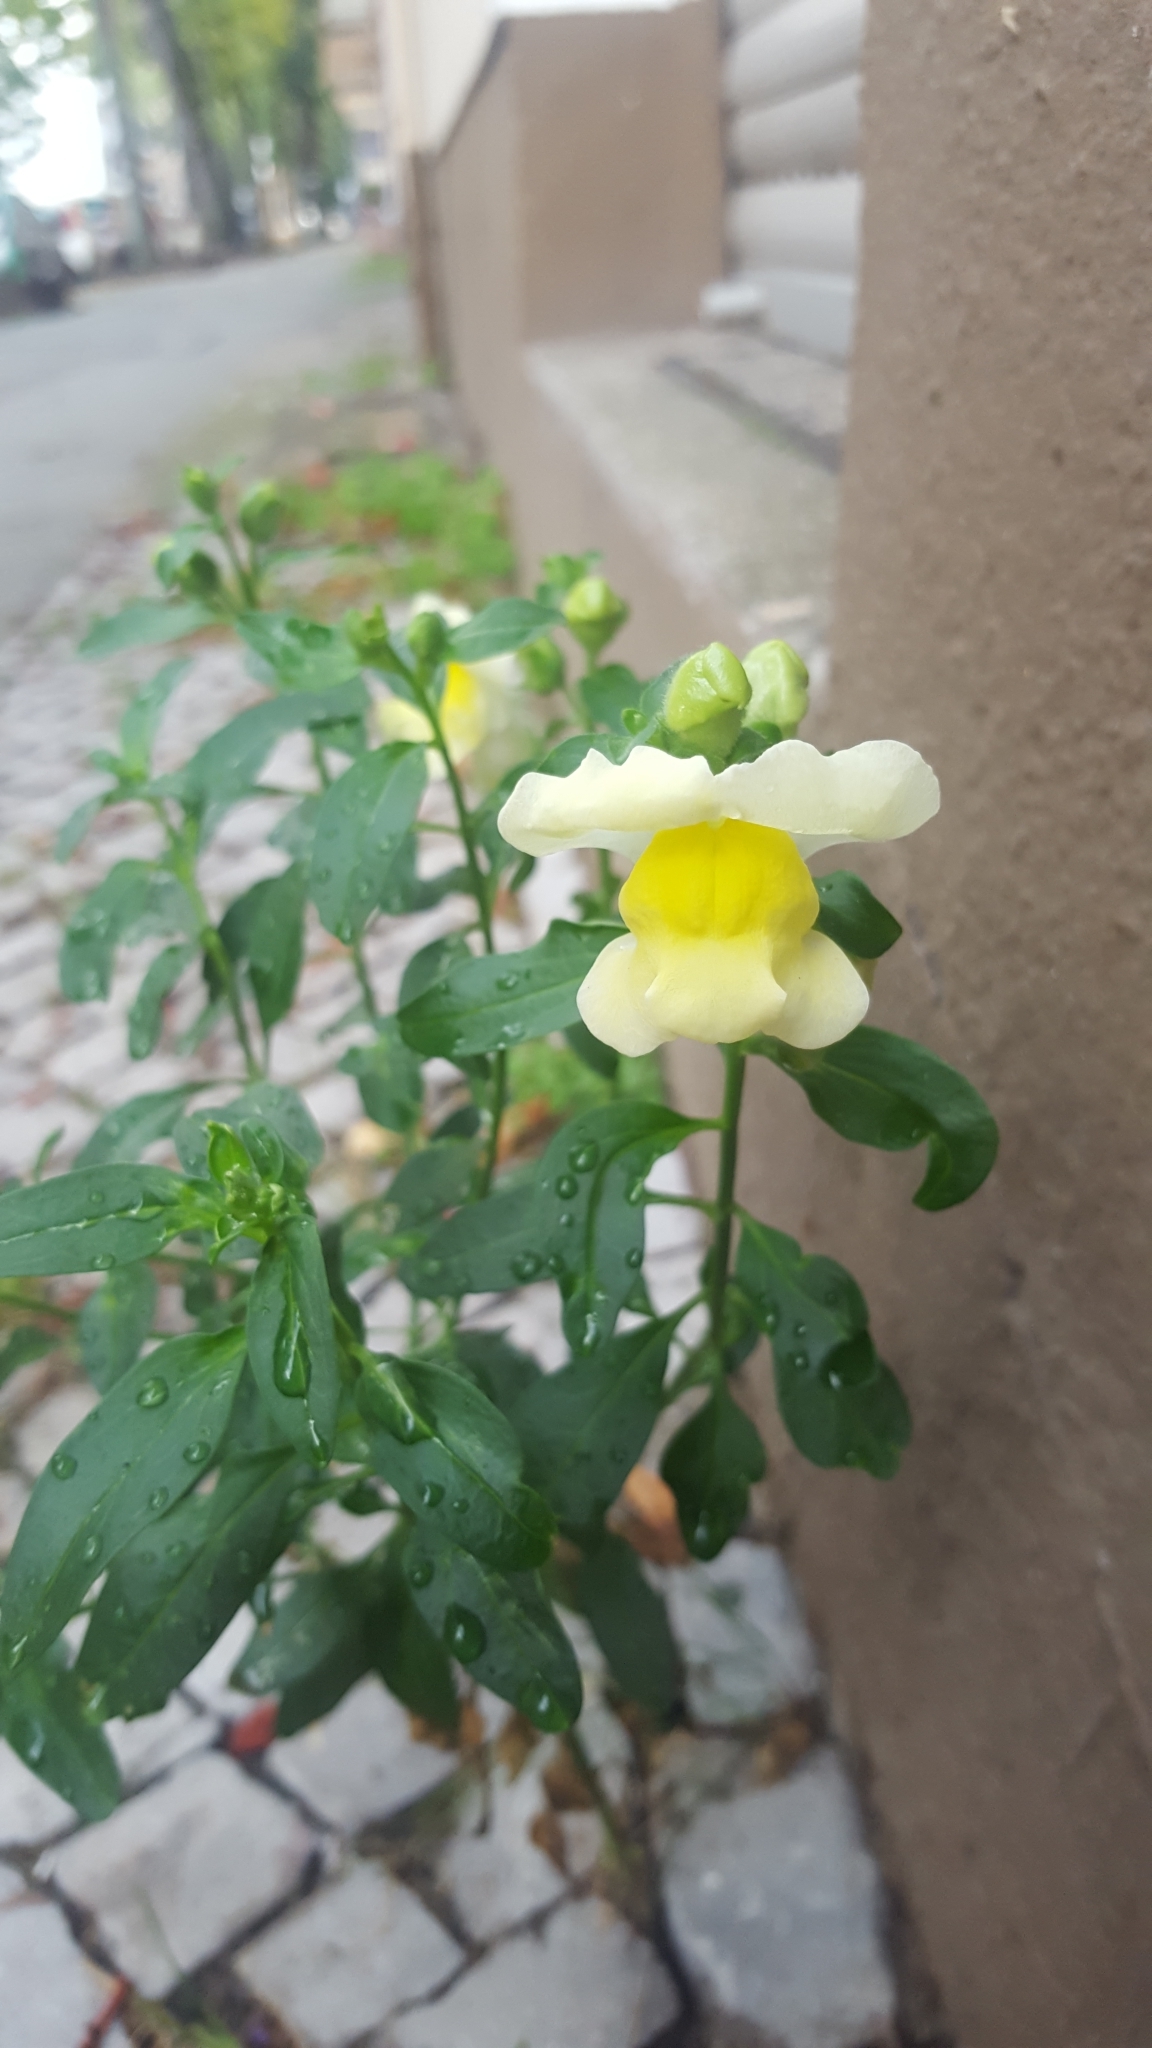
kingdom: Plantae
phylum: Tracheophyta
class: Magnoliopsida
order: Lamiales
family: Plantaginaceae
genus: Antirrhinum
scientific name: Antirrhinum majus
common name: Snapdragon
